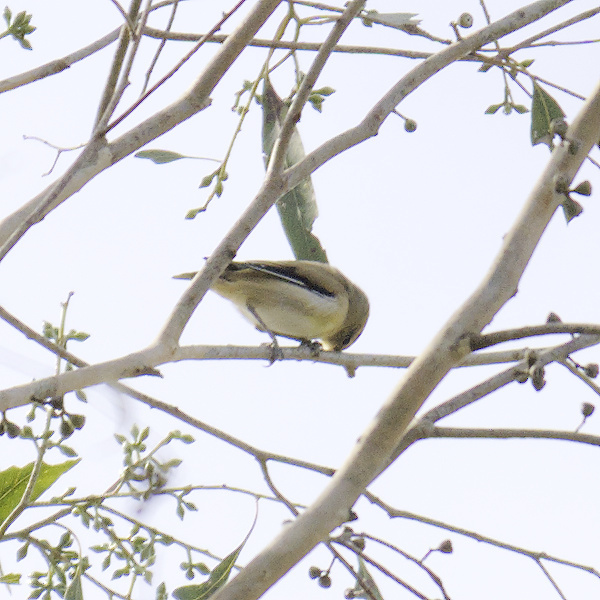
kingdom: Animalia
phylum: Chordata
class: Aves
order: Passeriformes
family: Pardalotidae
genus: Pardalotus
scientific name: Pardalotus striatus
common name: Striated pardalote
